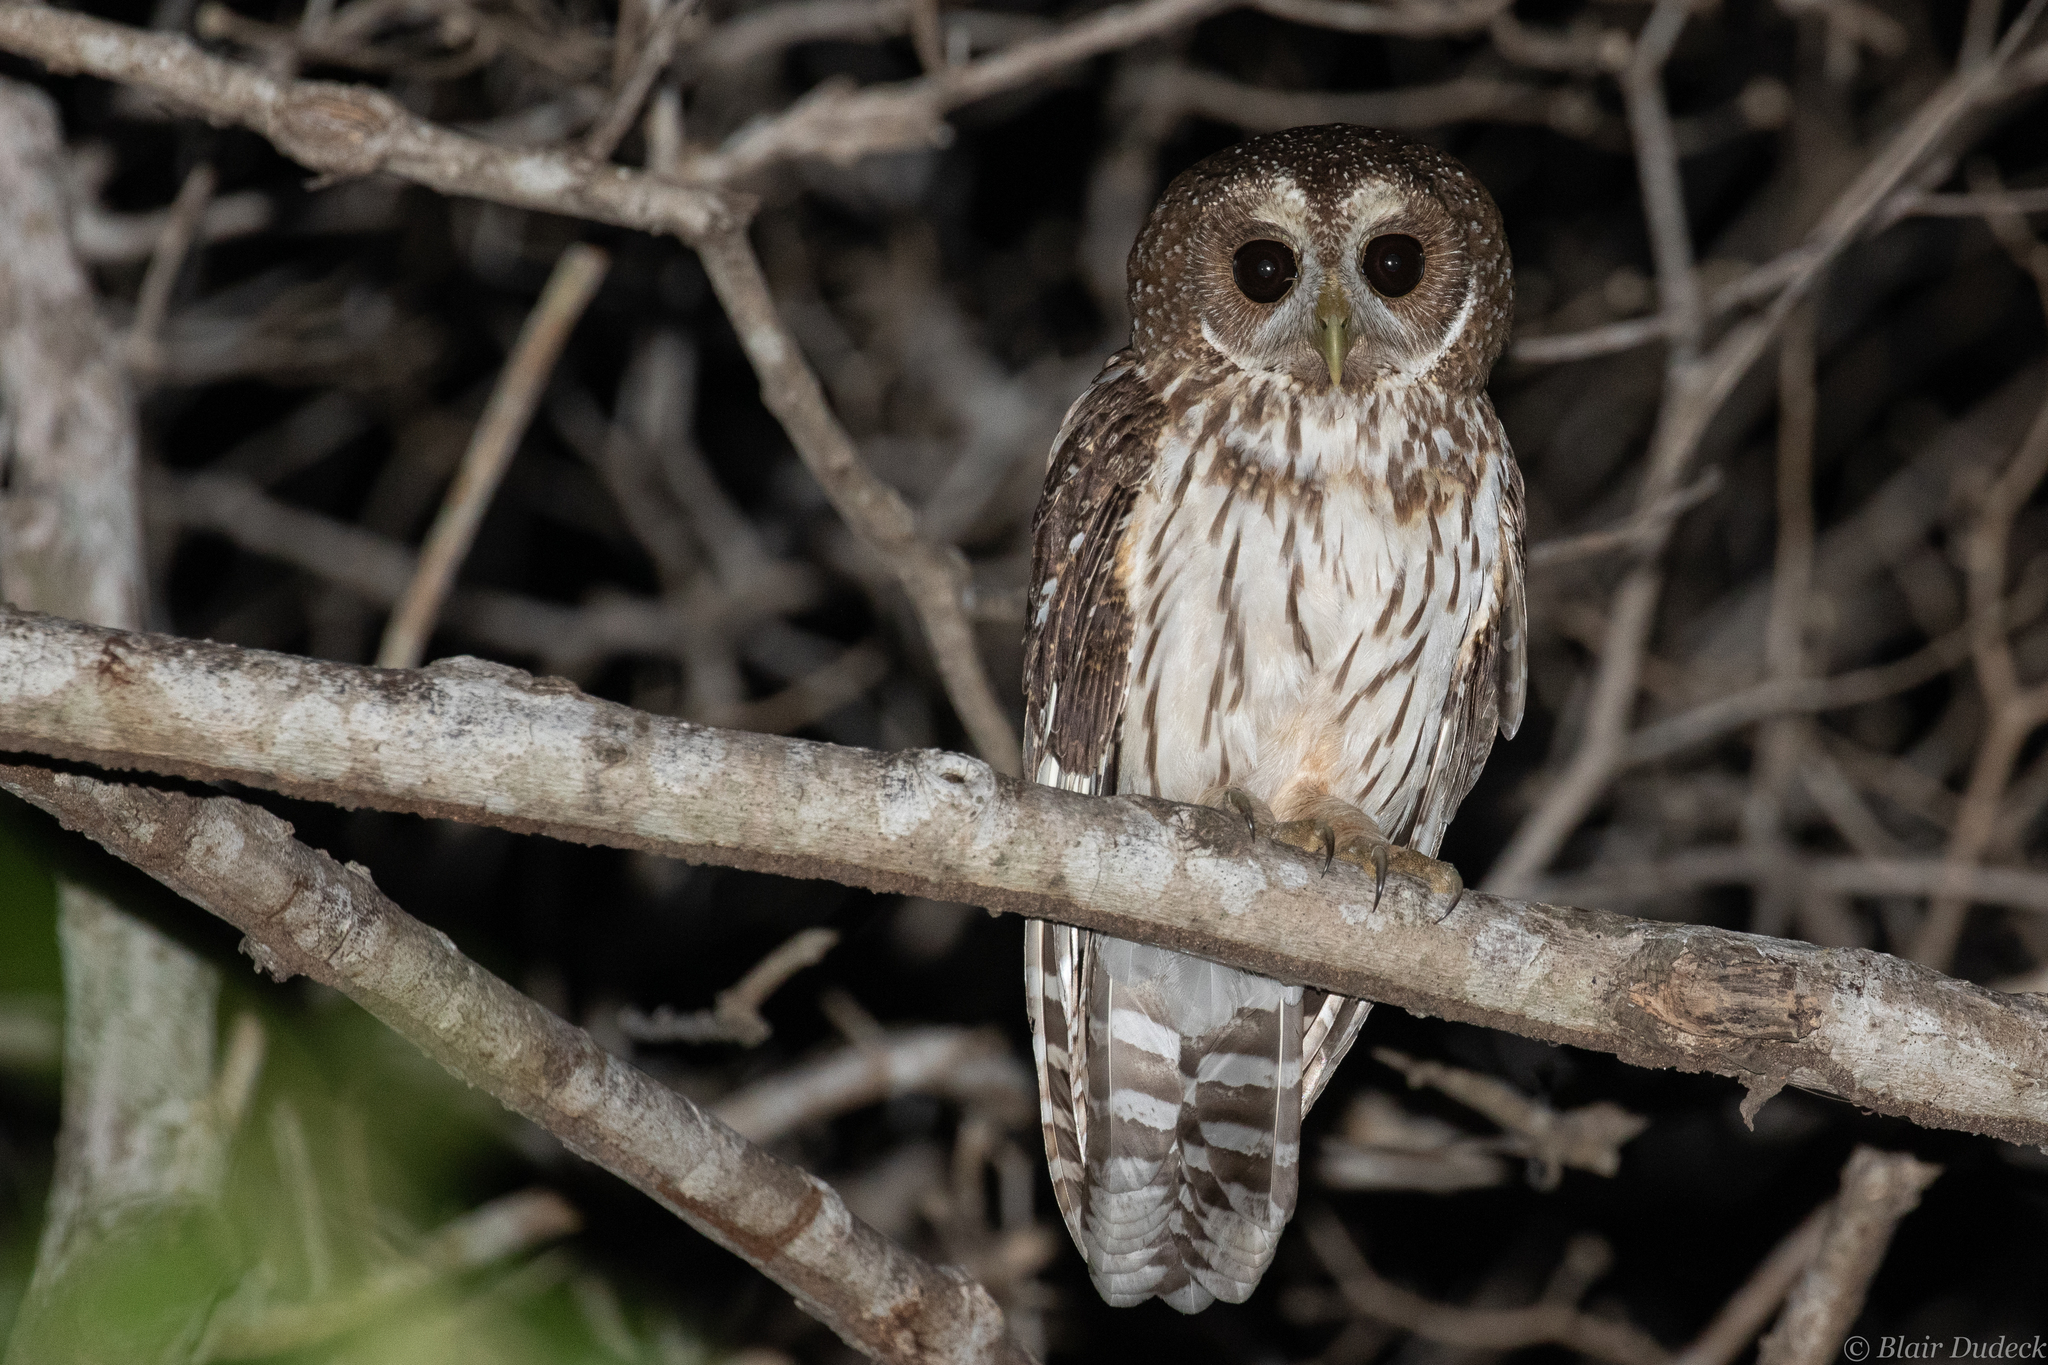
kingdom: Animalia
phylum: Chordata
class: Aves
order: Strigiformes
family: Strigidae
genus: Strix
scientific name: Strix virgata
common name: Mottled owl
